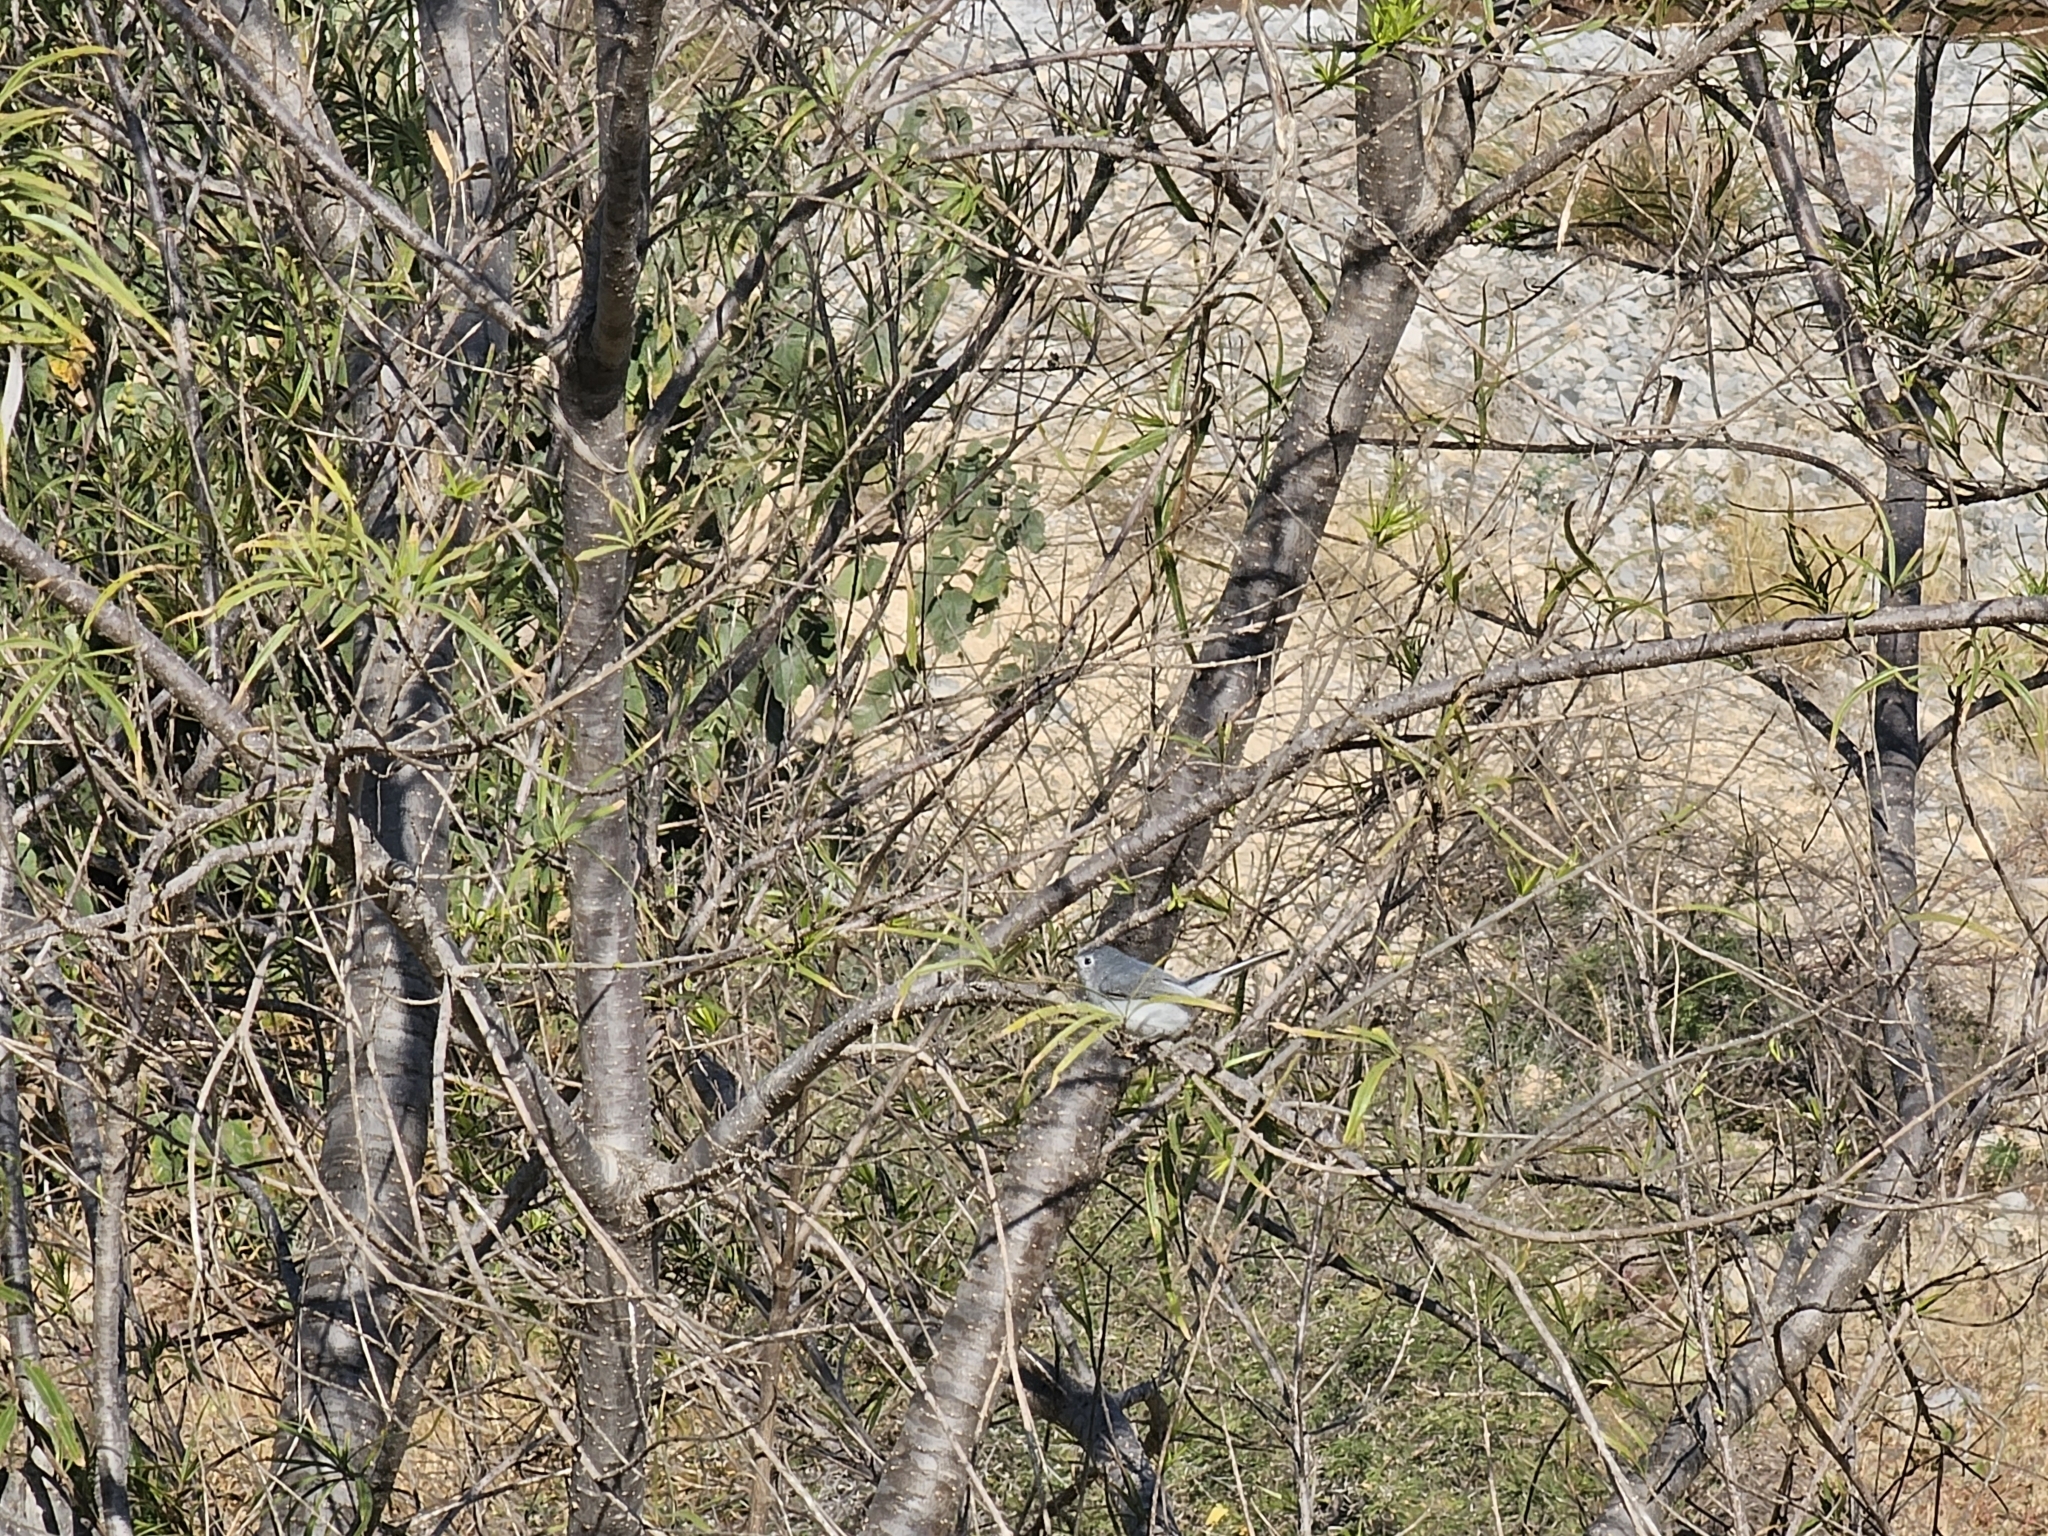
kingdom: Animalia
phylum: Chordata
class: Aves
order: Passeriformes
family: Polioptilidae
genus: Polioptila
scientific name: Polioptila caerulea
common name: Blue-gray gnatcatcher
